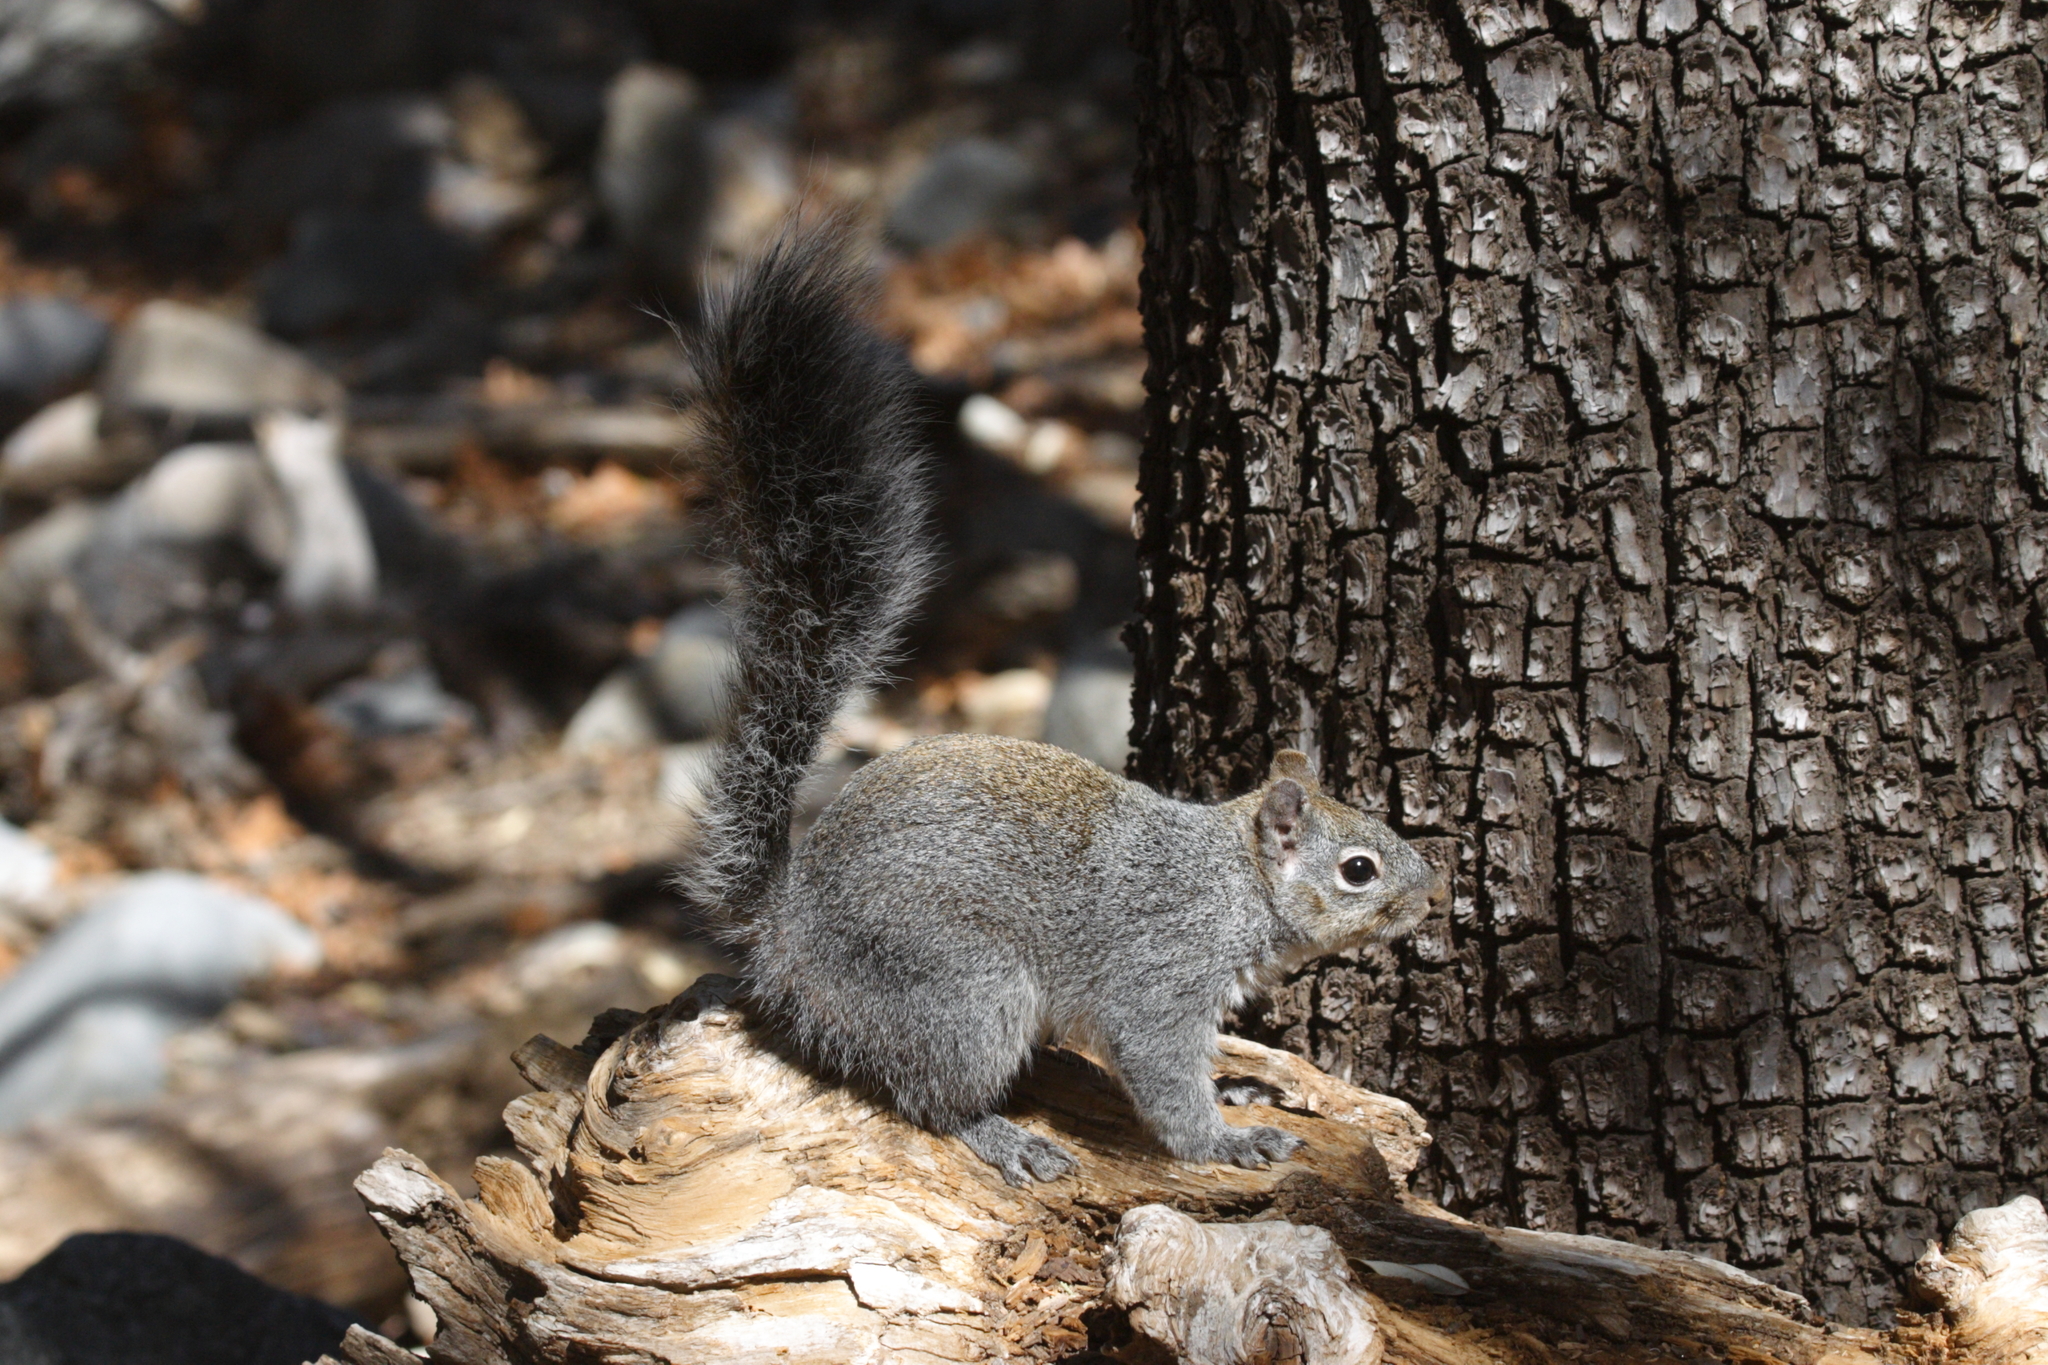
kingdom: Animalia
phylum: Chordata
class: Mammalia
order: Rodentia
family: Sciuridae
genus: Sciurus
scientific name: Sciurus arizonensis
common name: Arizona gray squirrel
